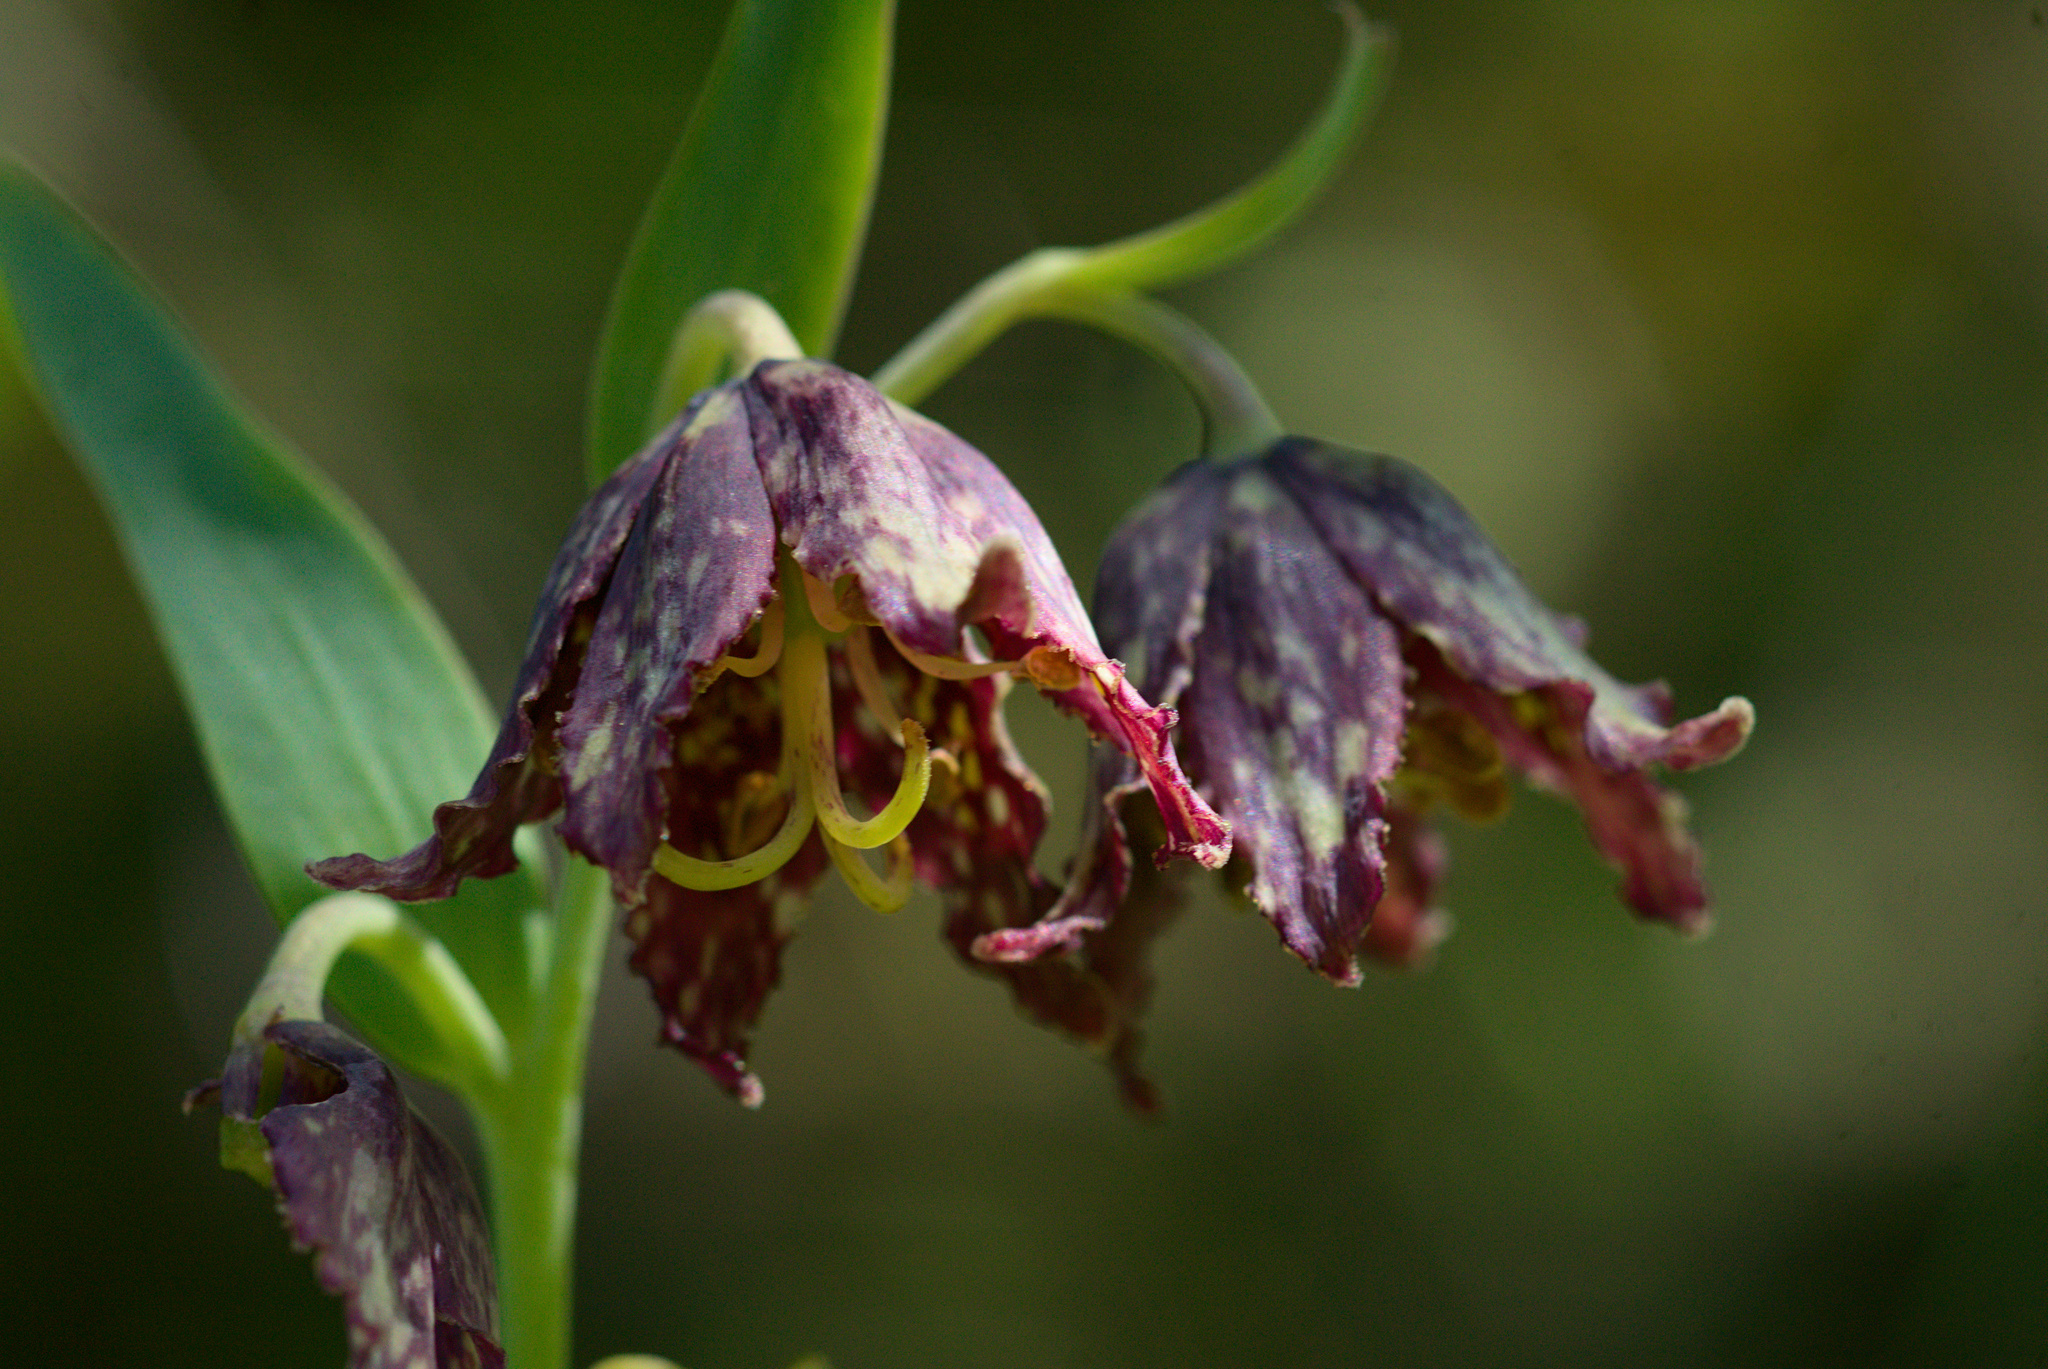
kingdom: Plantae
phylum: Tracheophyta
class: Liliopsida
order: Liliales
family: Liliaceae
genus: Fritillaria
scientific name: Fritillaria affinis
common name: Ojai fritillary
